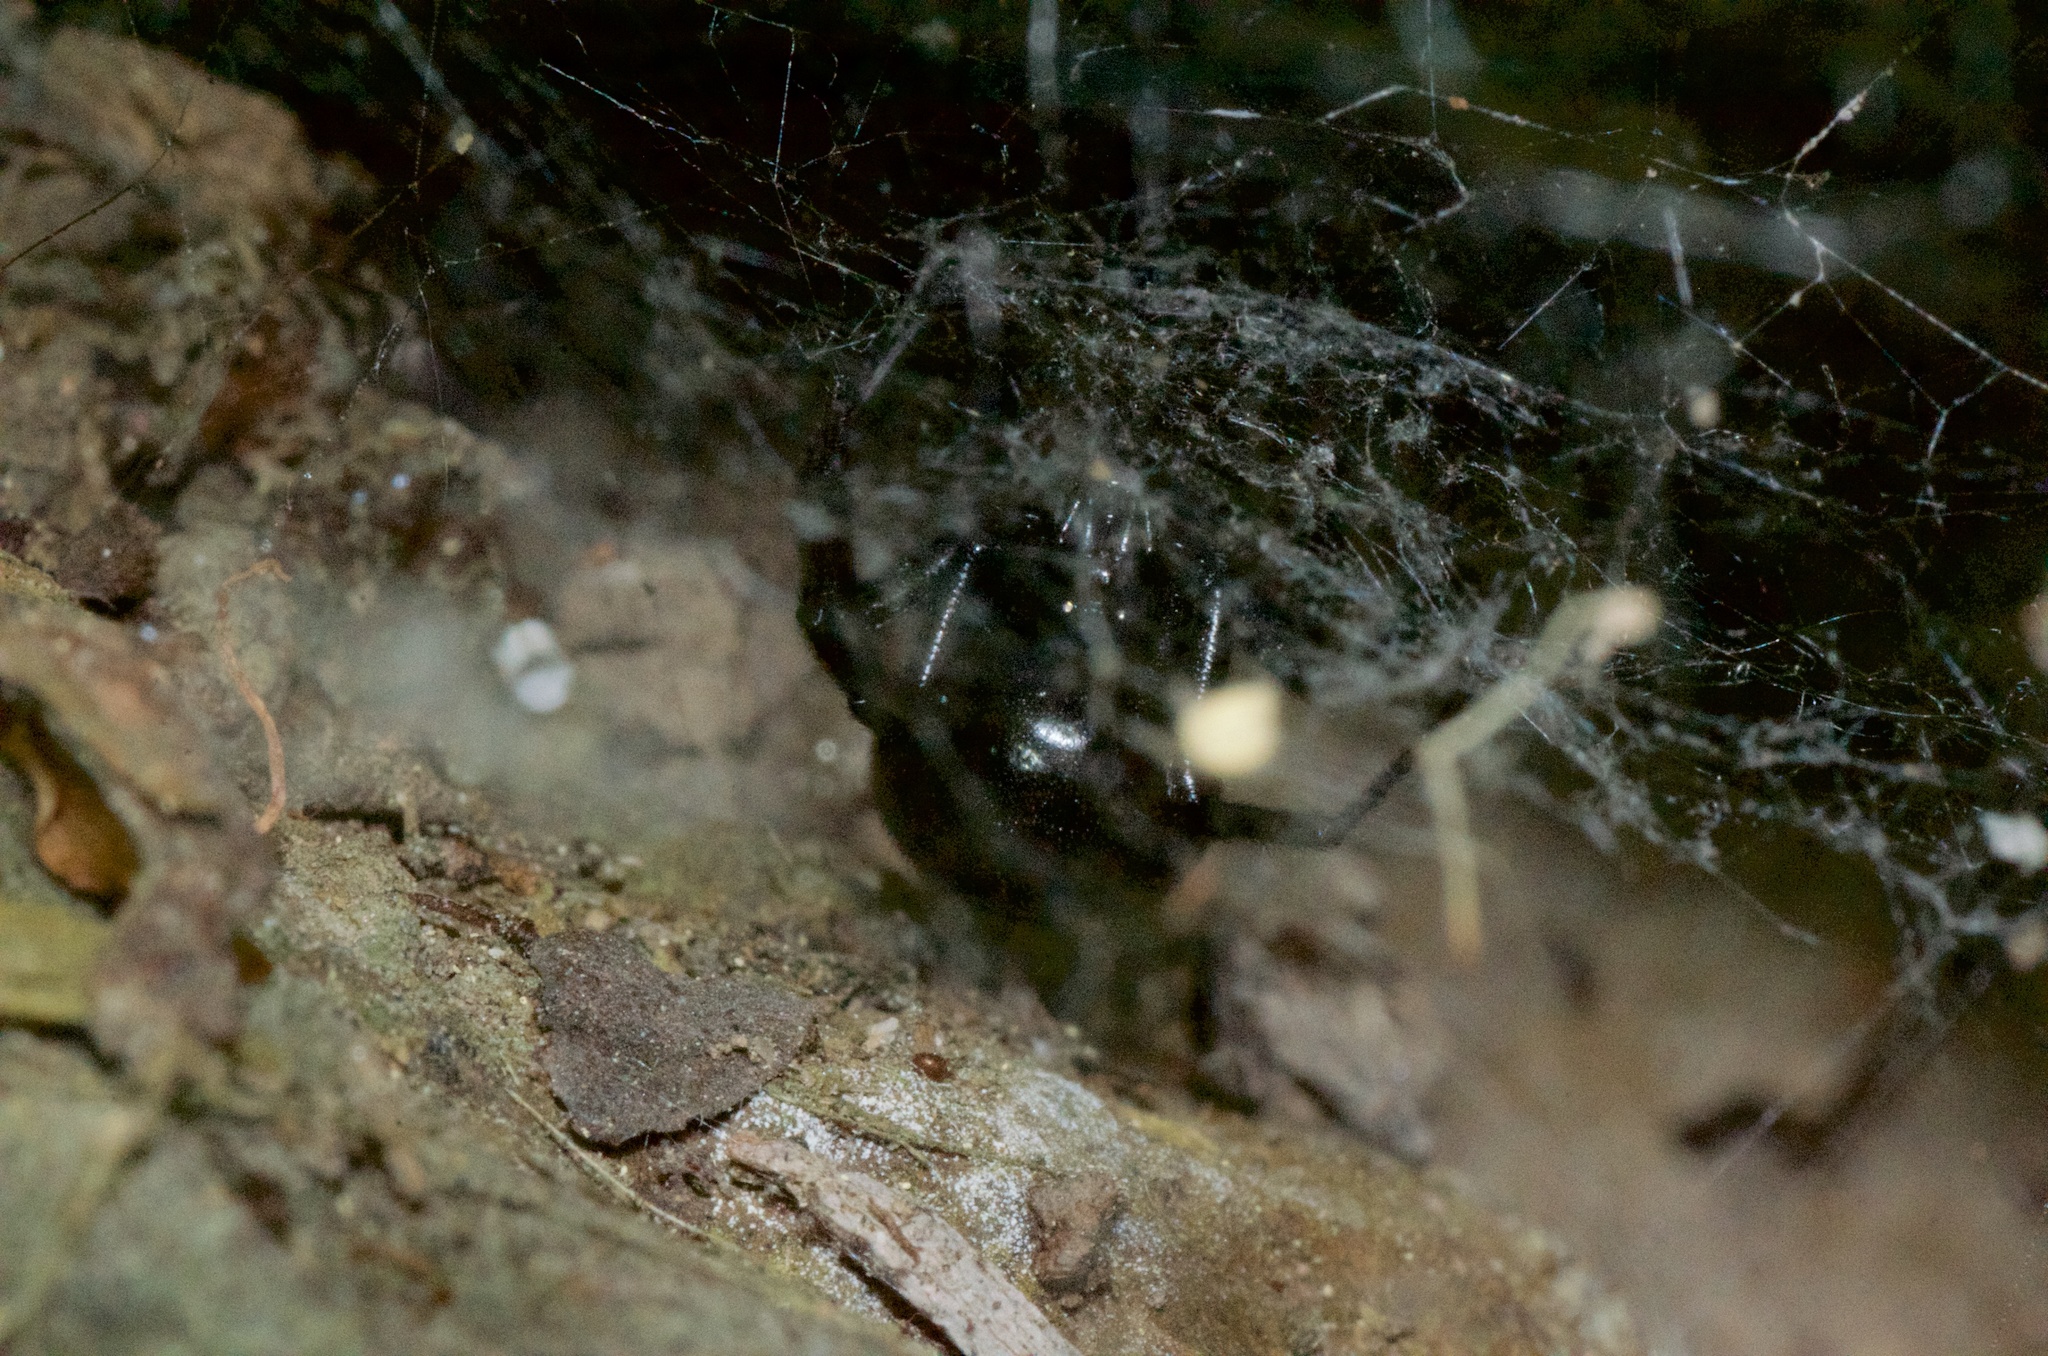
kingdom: Animalia
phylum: Arthropoda
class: Arachnida
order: Araneae
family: Theridiidae
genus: Steatoda
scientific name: Steatoda capensis
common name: Cobweb weaver
